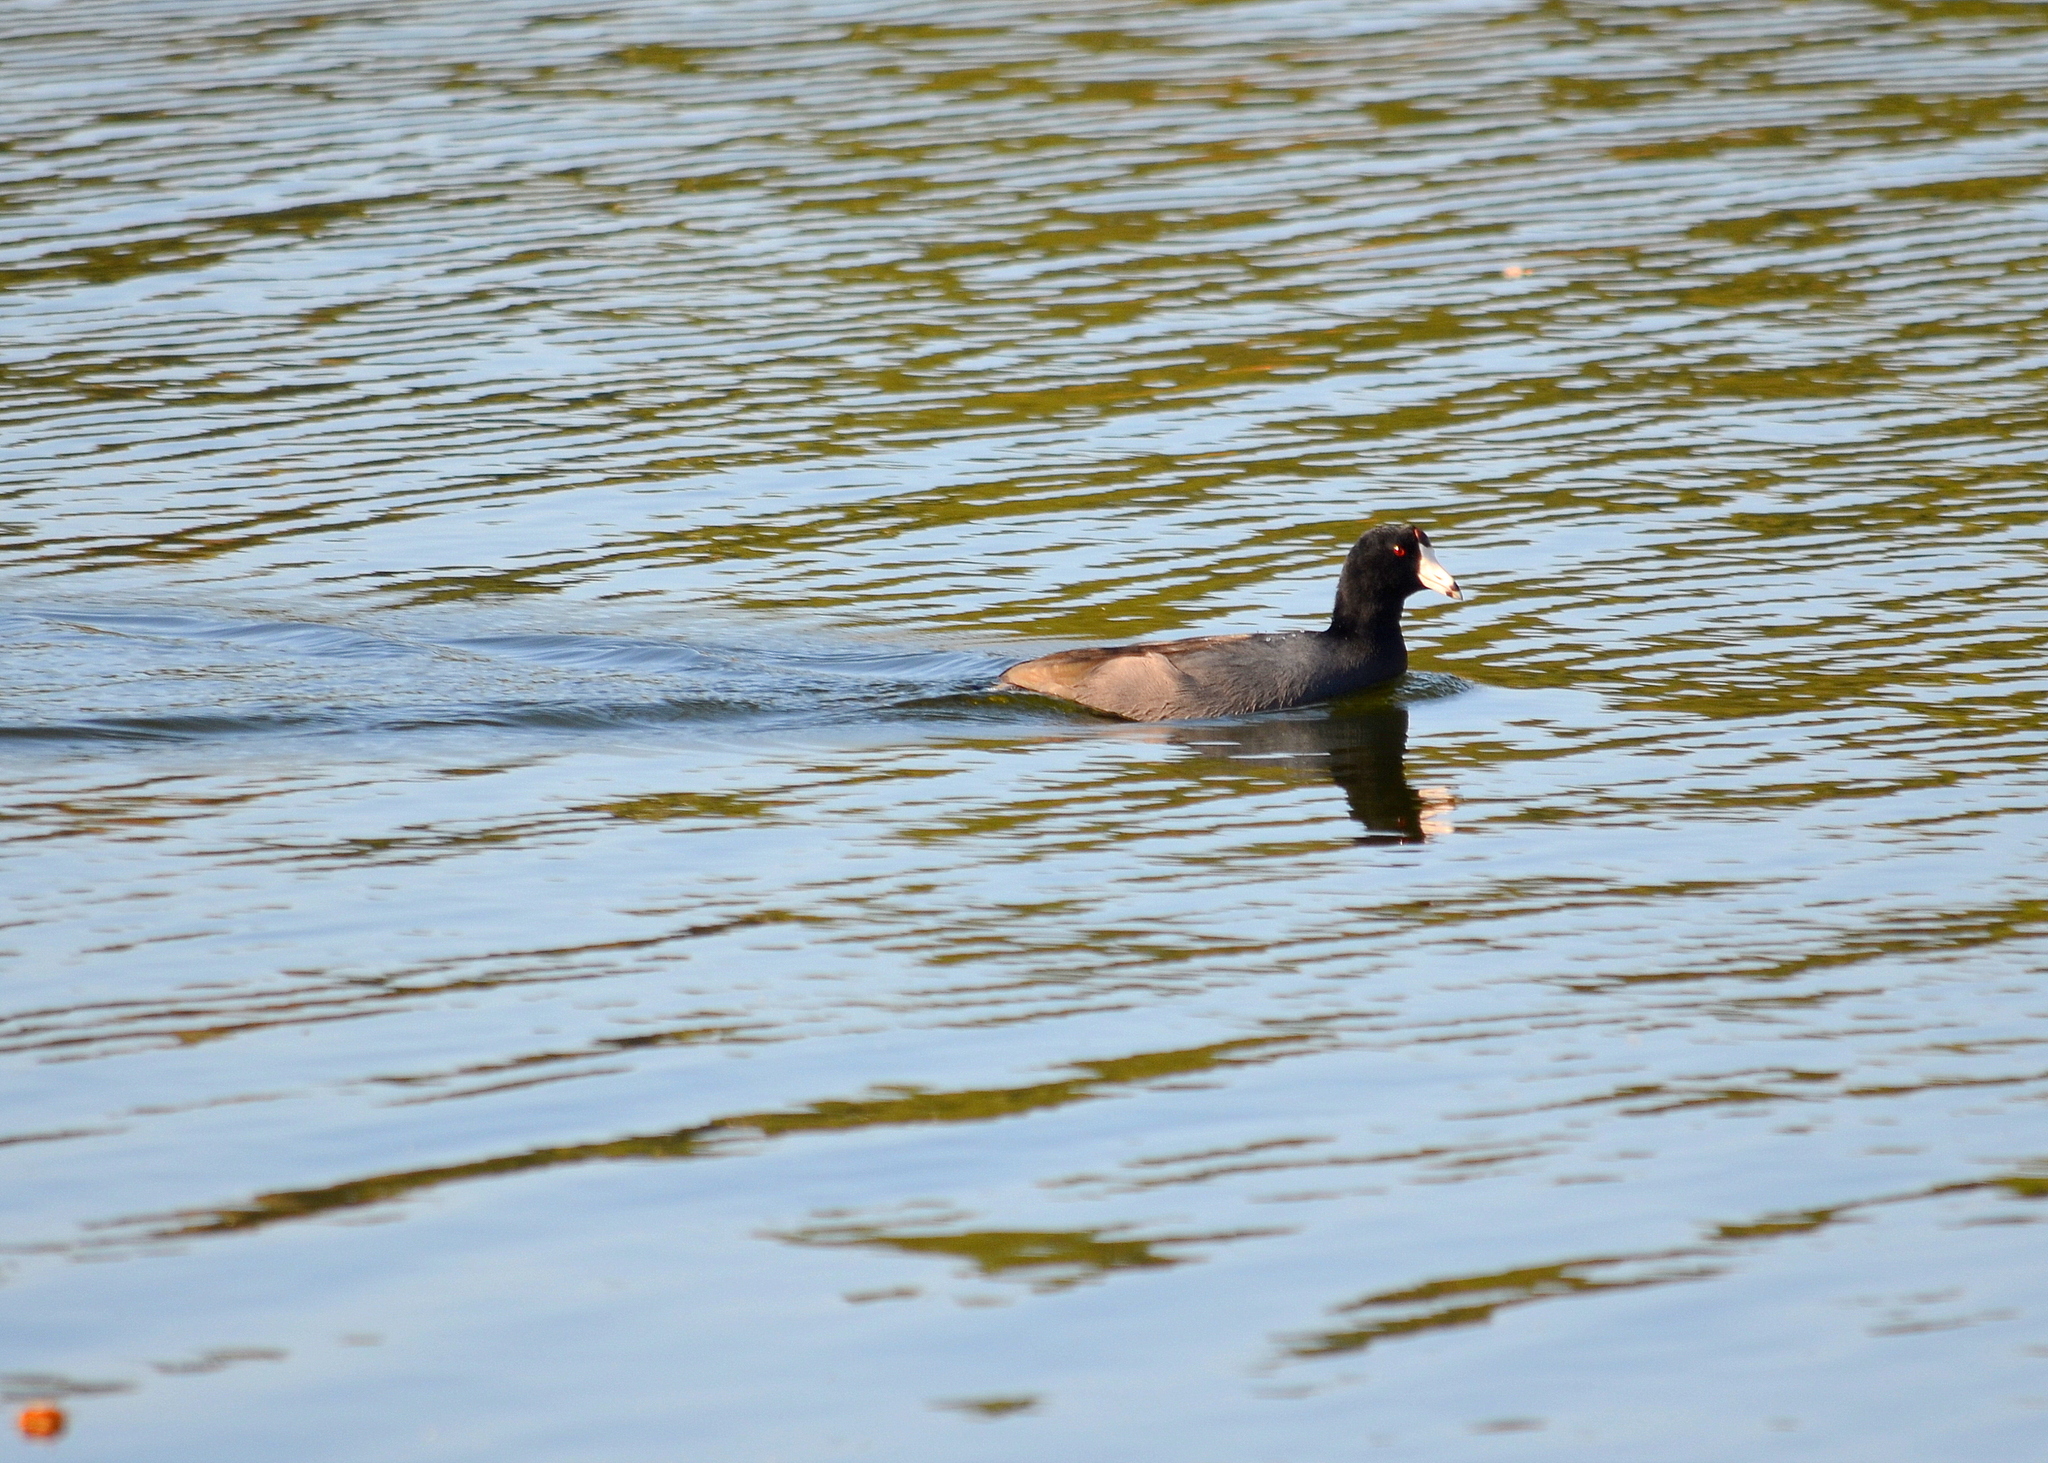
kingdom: Animalia
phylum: Chordata
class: Aves
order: Gruiformes
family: Rallidae
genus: Fulica
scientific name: Fulica americana
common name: American coot
